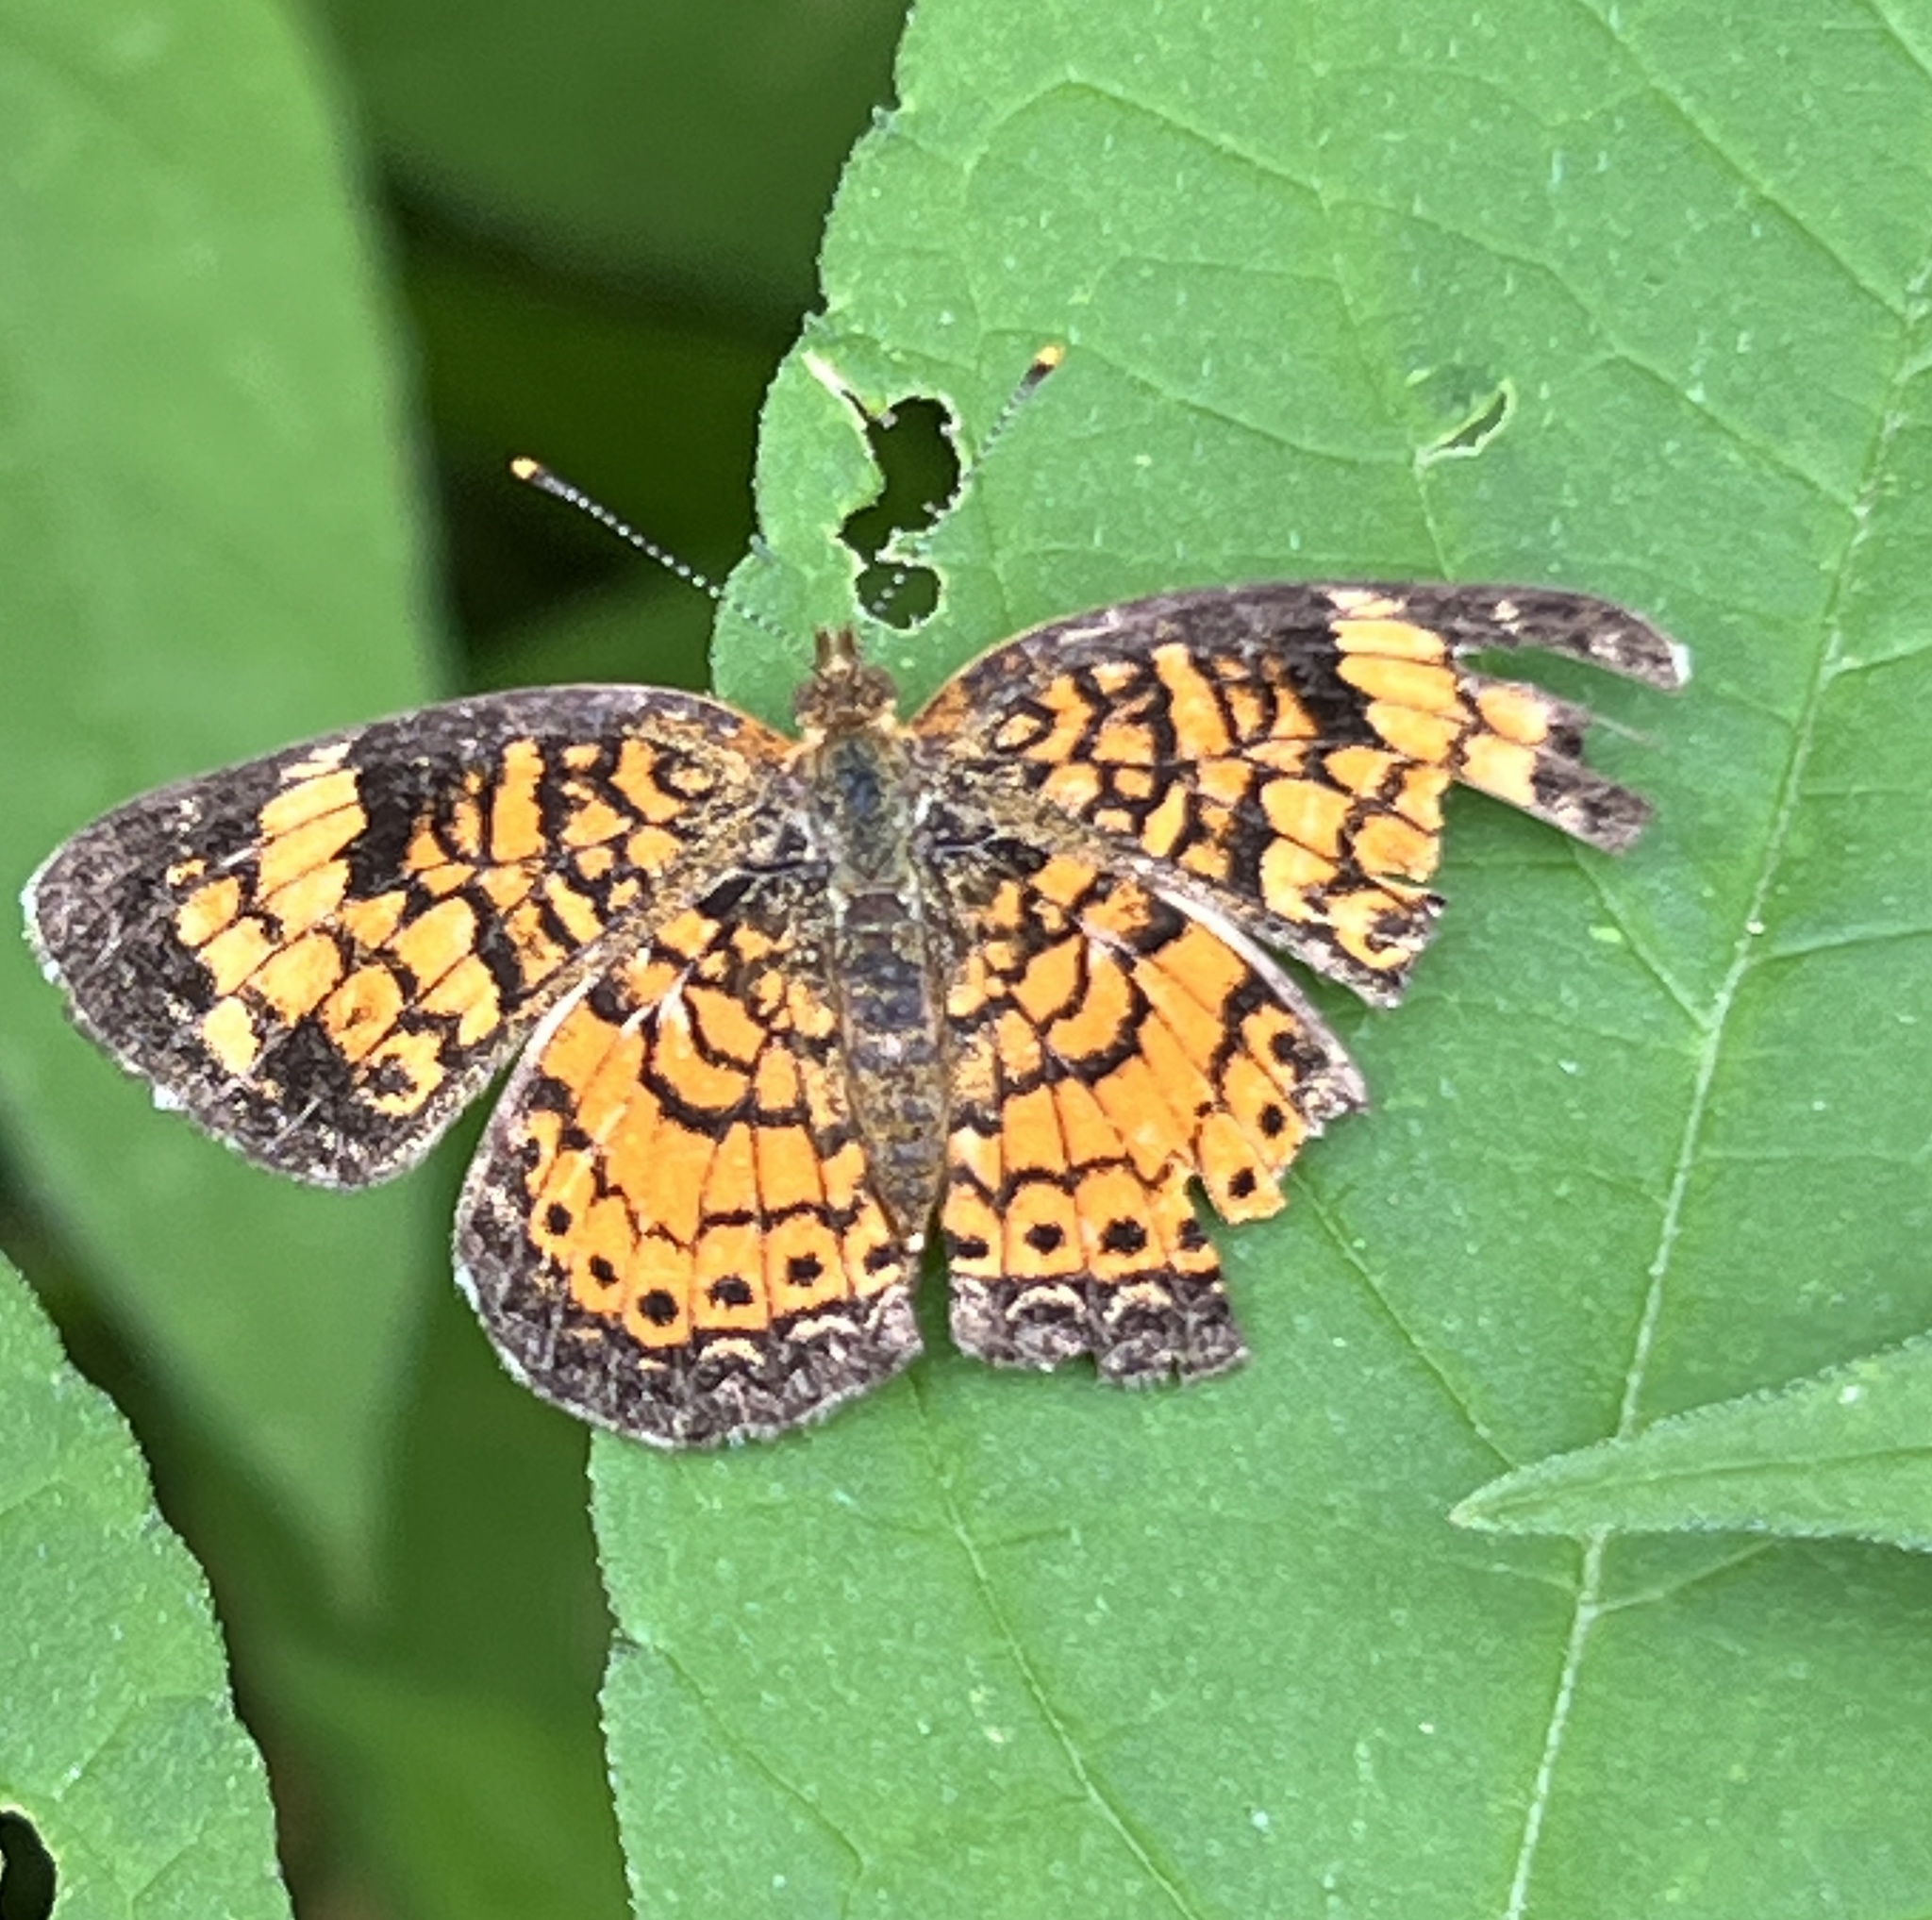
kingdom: Animalia
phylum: Arthropoda
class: Insecta
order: Lepidoptera
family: Nymphalidae
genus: Phyciodes
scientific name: Phyciodes tharos
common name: Pearl crescent
